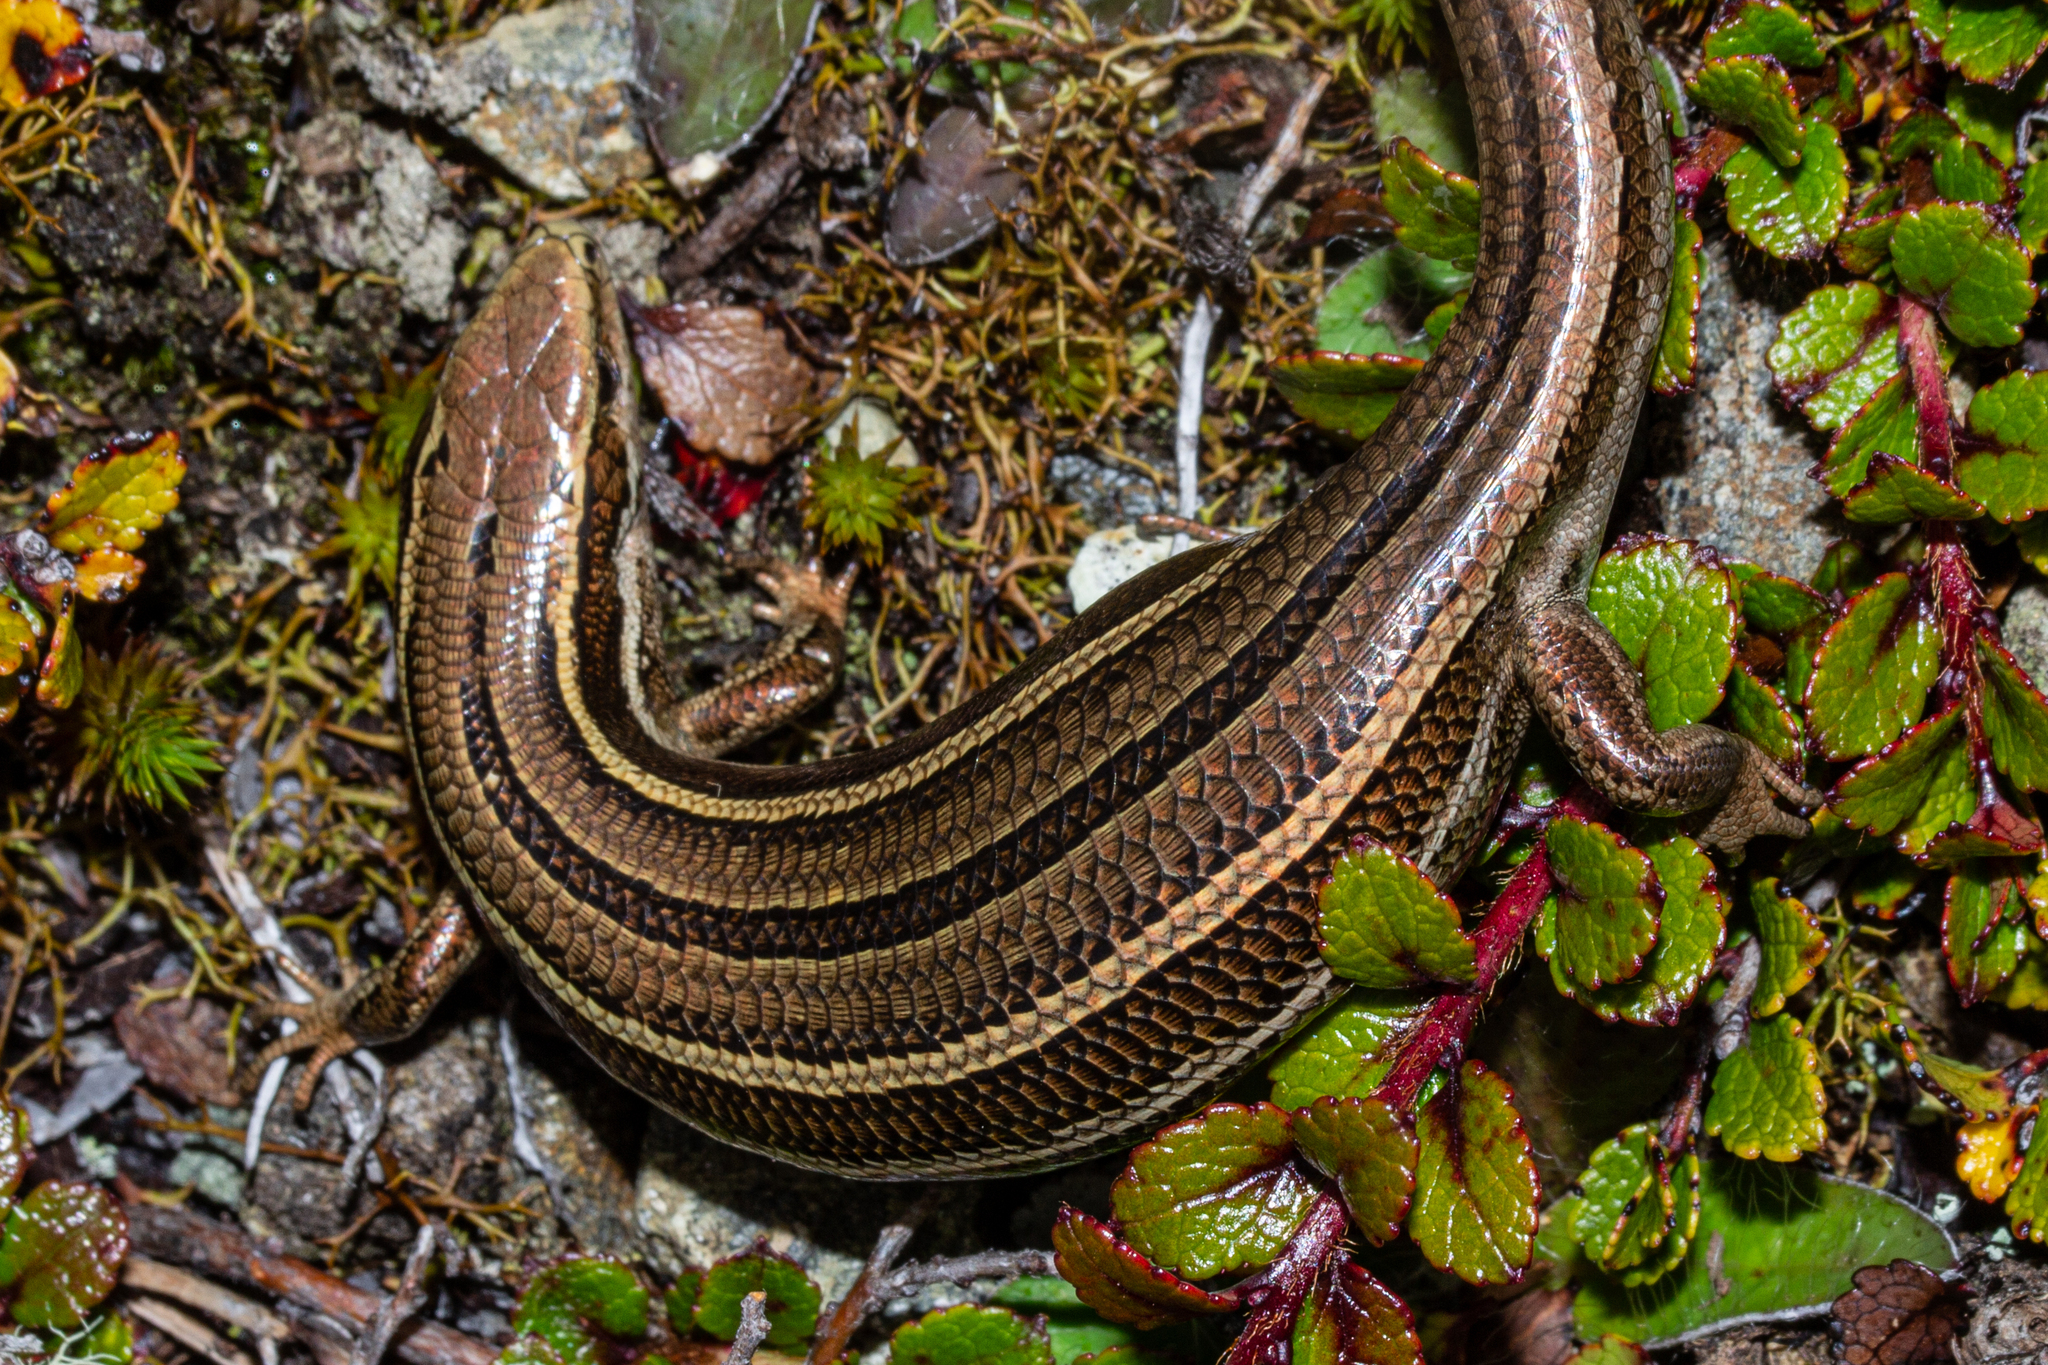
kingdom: Animalia
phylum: Chordata
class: Squamata
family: Scincidae
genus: Oligosoma
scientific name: Oligosoma repens
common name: Eyres skink
